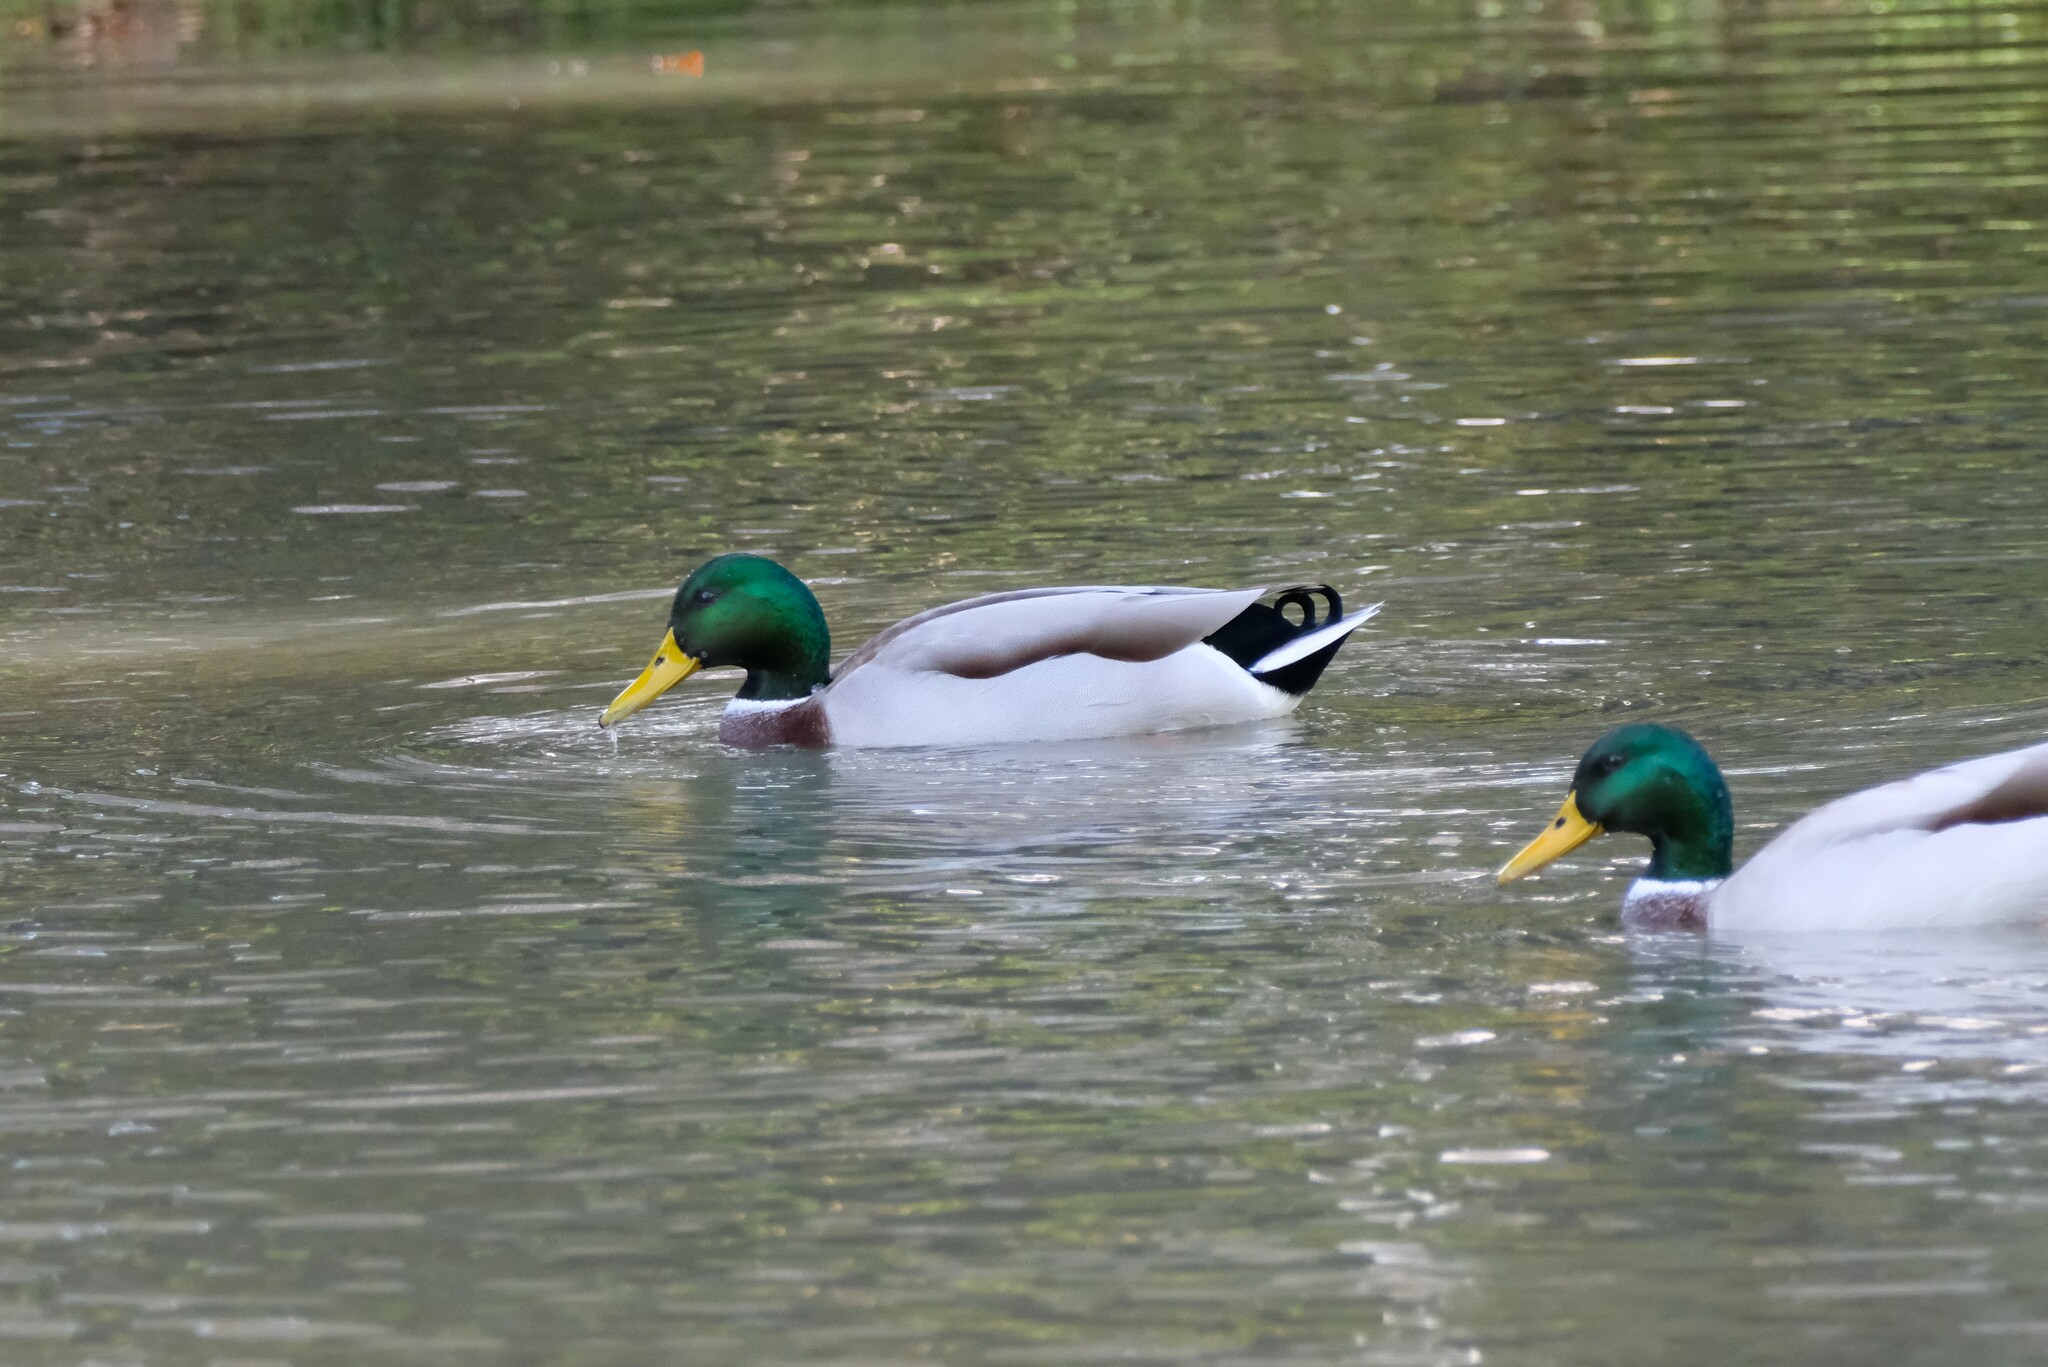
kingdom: Animalia
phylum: Chordata
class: Aves
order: Anseriformes
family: Anatidae
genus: Anas
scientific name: Anas platyrhynchos
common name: Mallard
